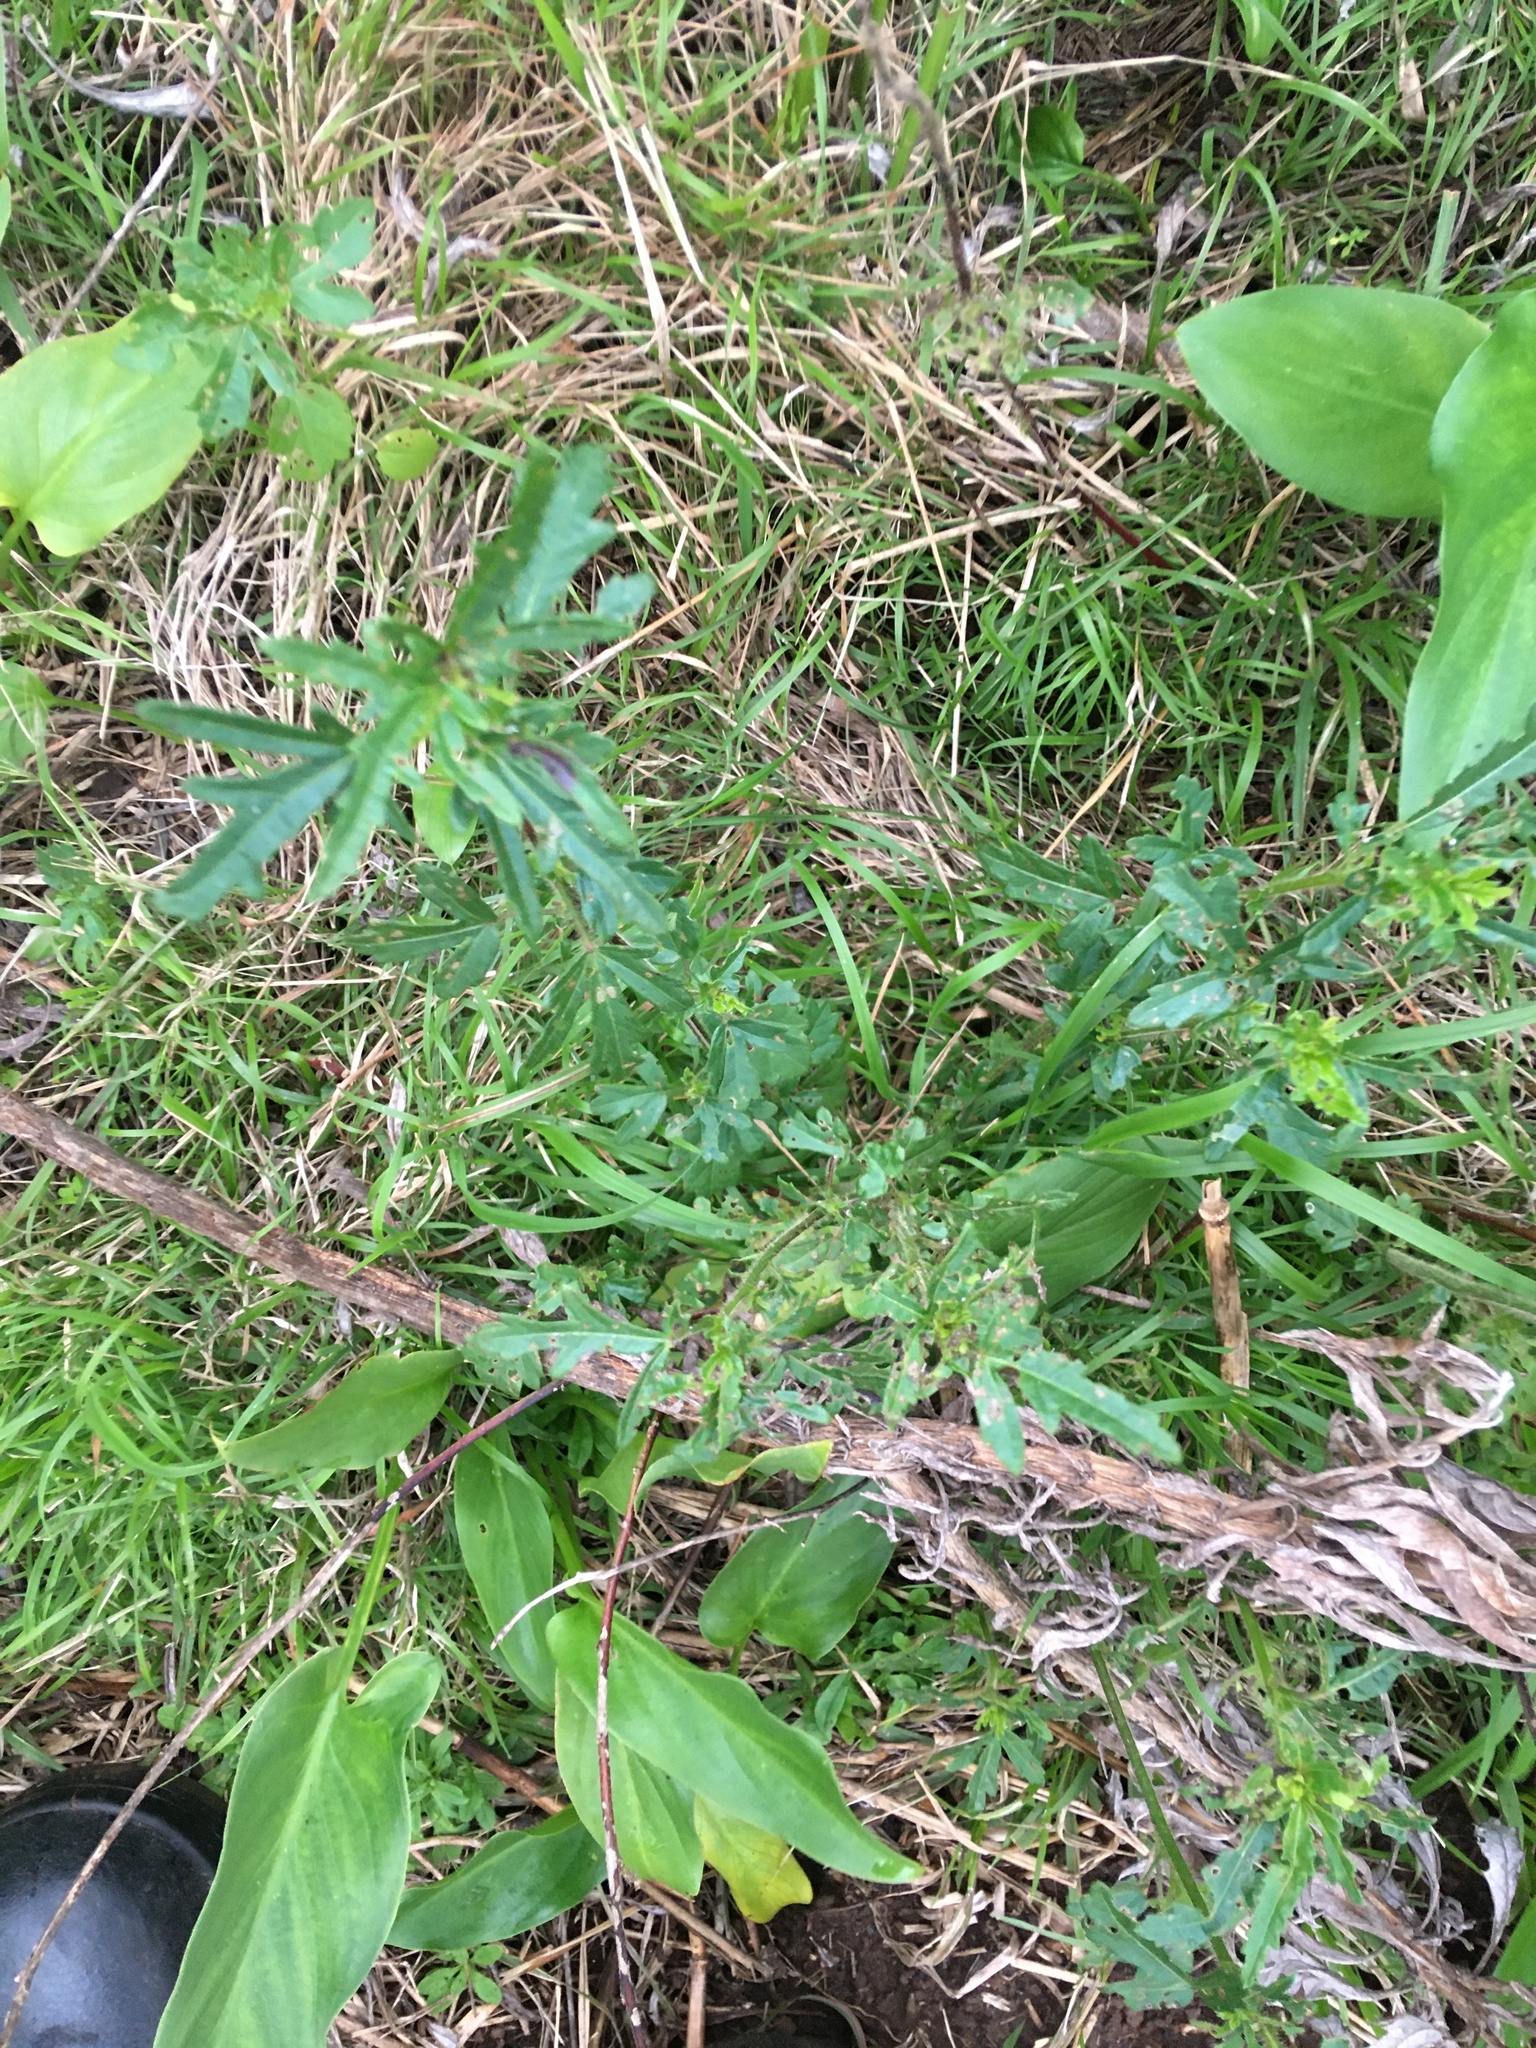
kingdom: Plantae
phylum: Tracheophyta
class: Magnoliopsida
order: Malvales
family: Malvaceae
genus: Hibiscus
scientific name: Hibiscus trionum
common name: Bladder ketmia
